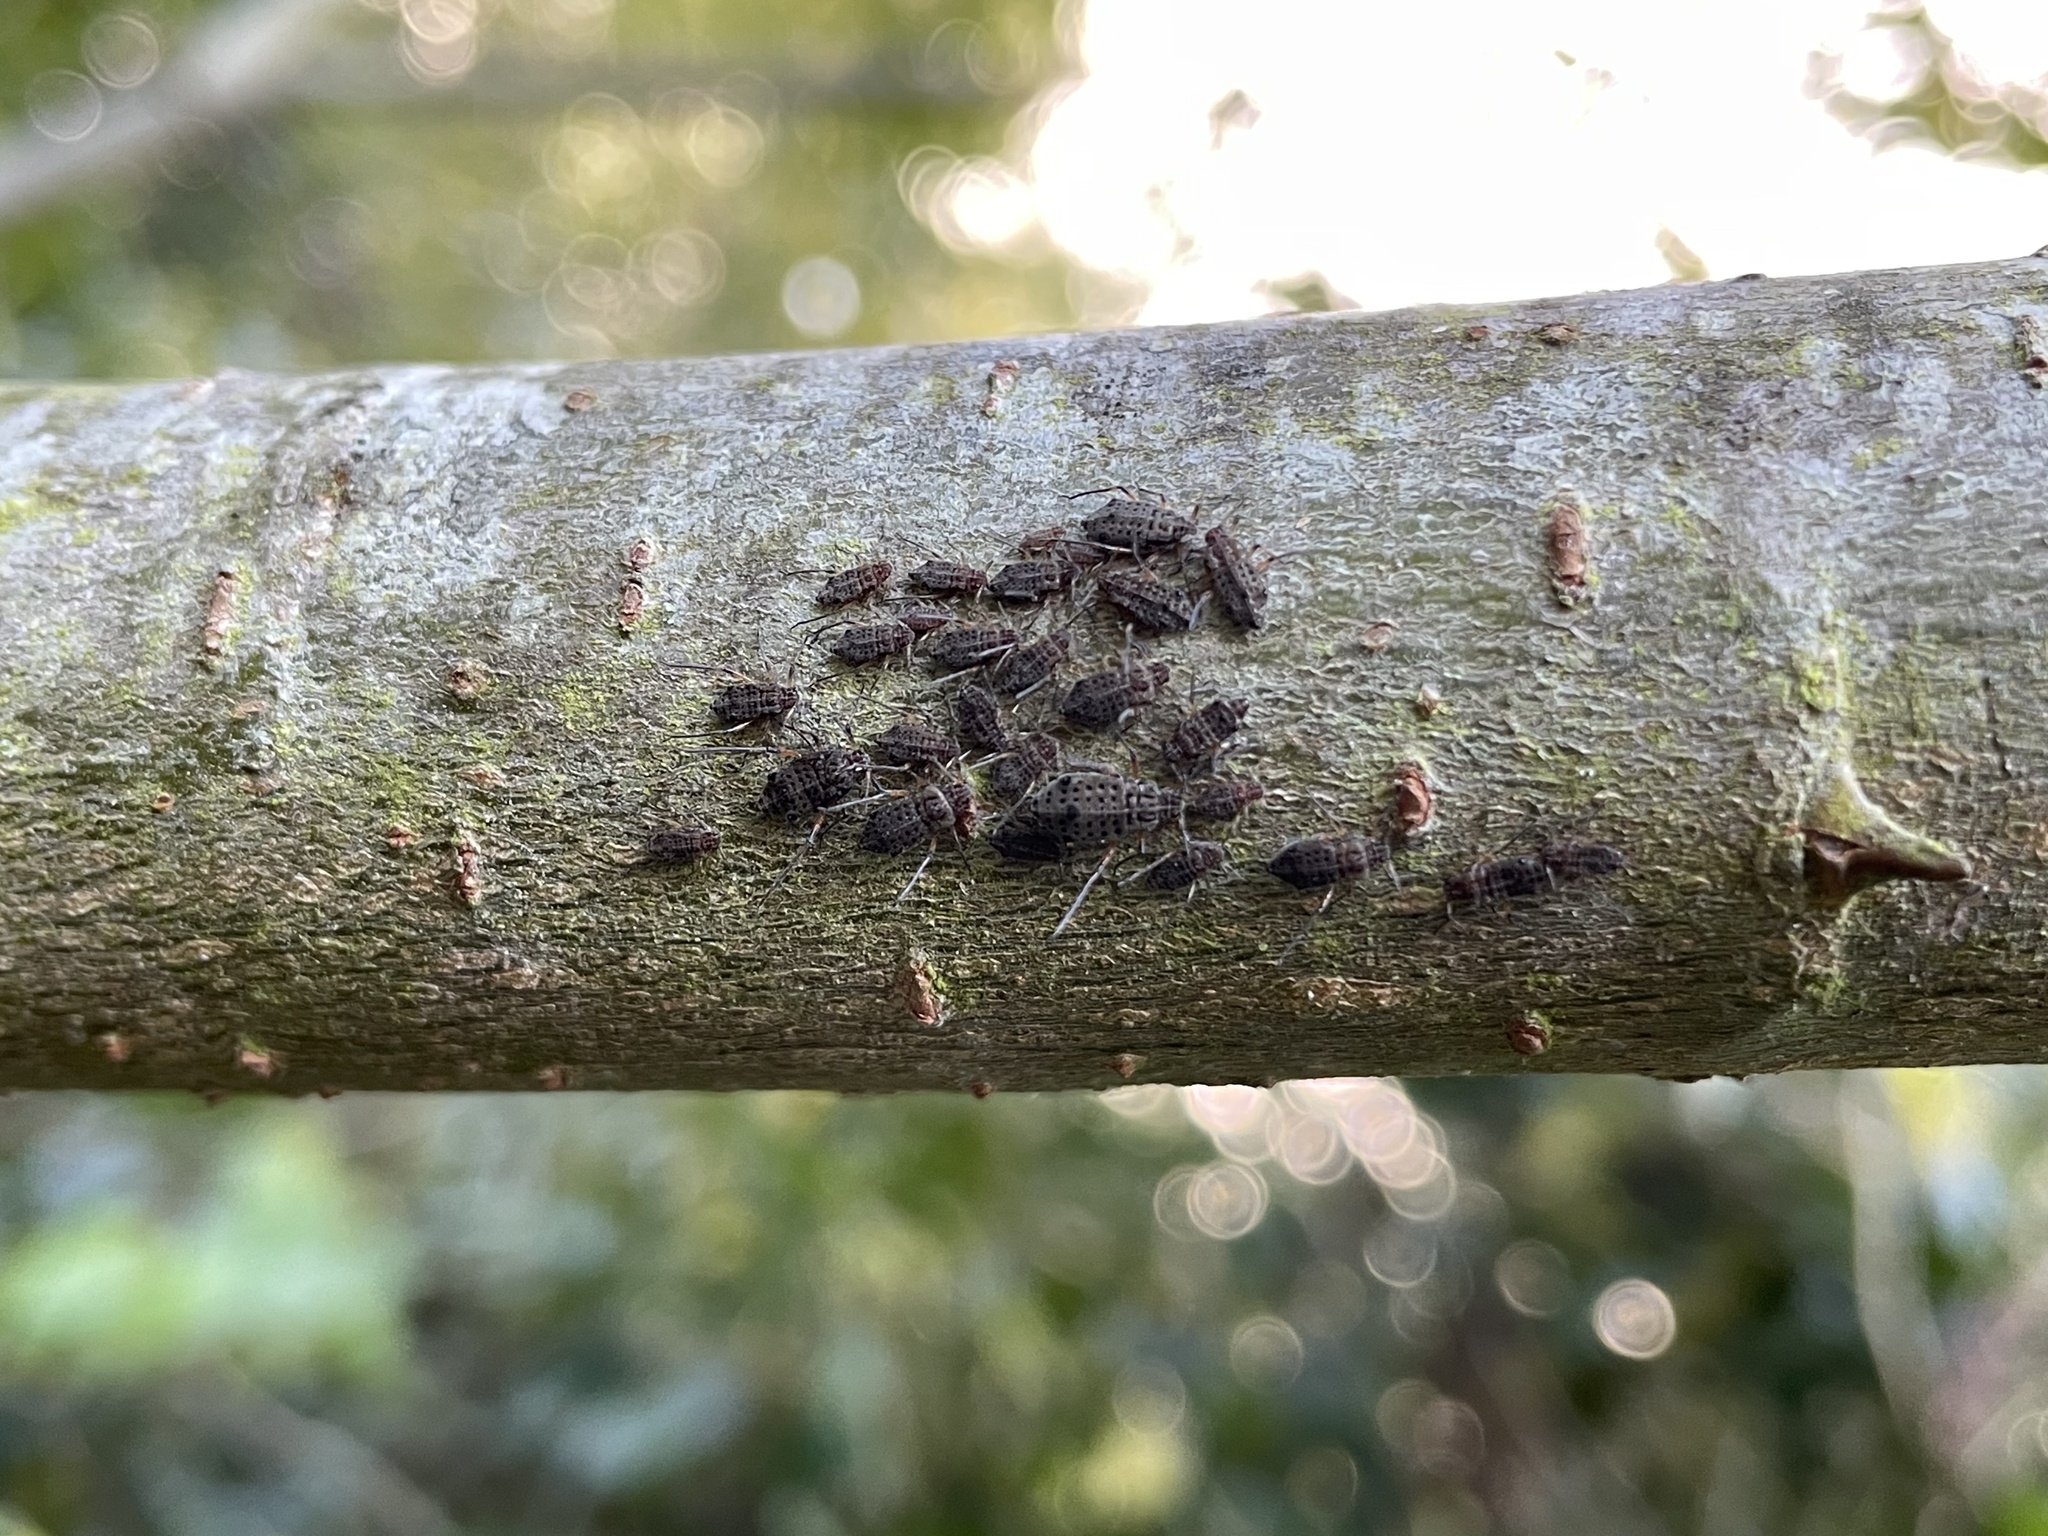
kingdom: Animalia
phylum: Arthropoda
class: Insecta
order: Hemiptera
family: Aphididae
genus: Tuberolachnus
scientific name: Tuberolachnus salignus
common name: Giant willow aphid
